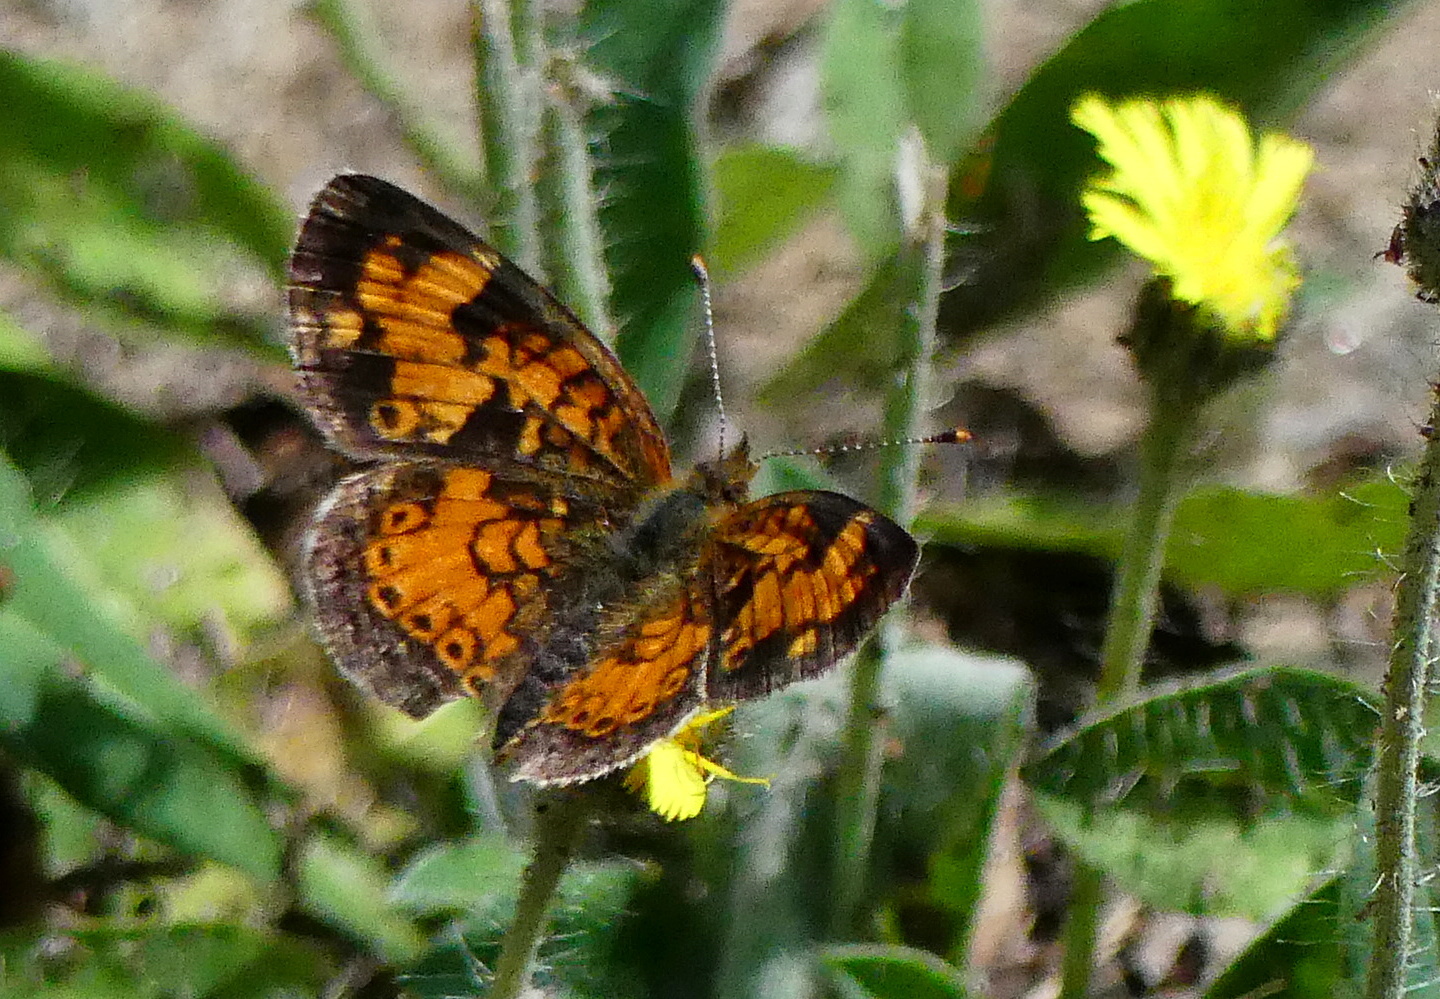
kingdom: Animalia
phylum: Arthropoda
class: Insecta
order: Lepidoptera
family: Nymphalidae
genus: Phyciodes
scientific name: Phyciodes tharos
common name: Pearl crescent
